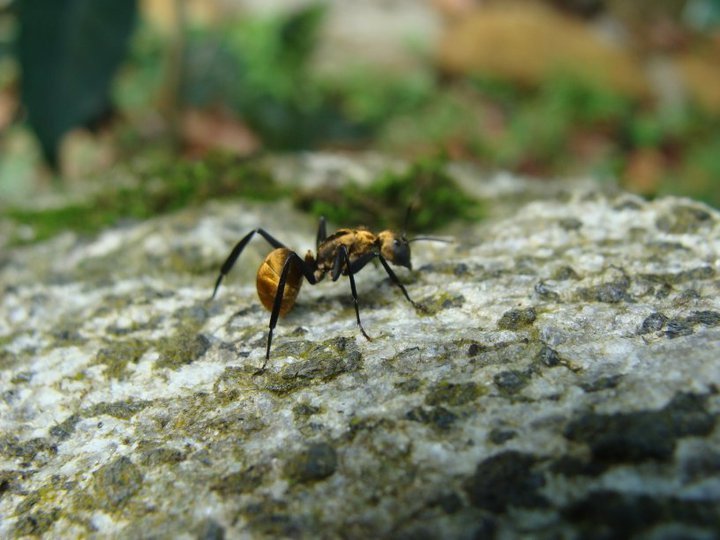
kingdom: Animalia
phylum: Arthropoda
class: Insecta
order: Hymenoptera
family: Formicidae
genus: Camponotus
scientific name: Camponotus sericeiventris
